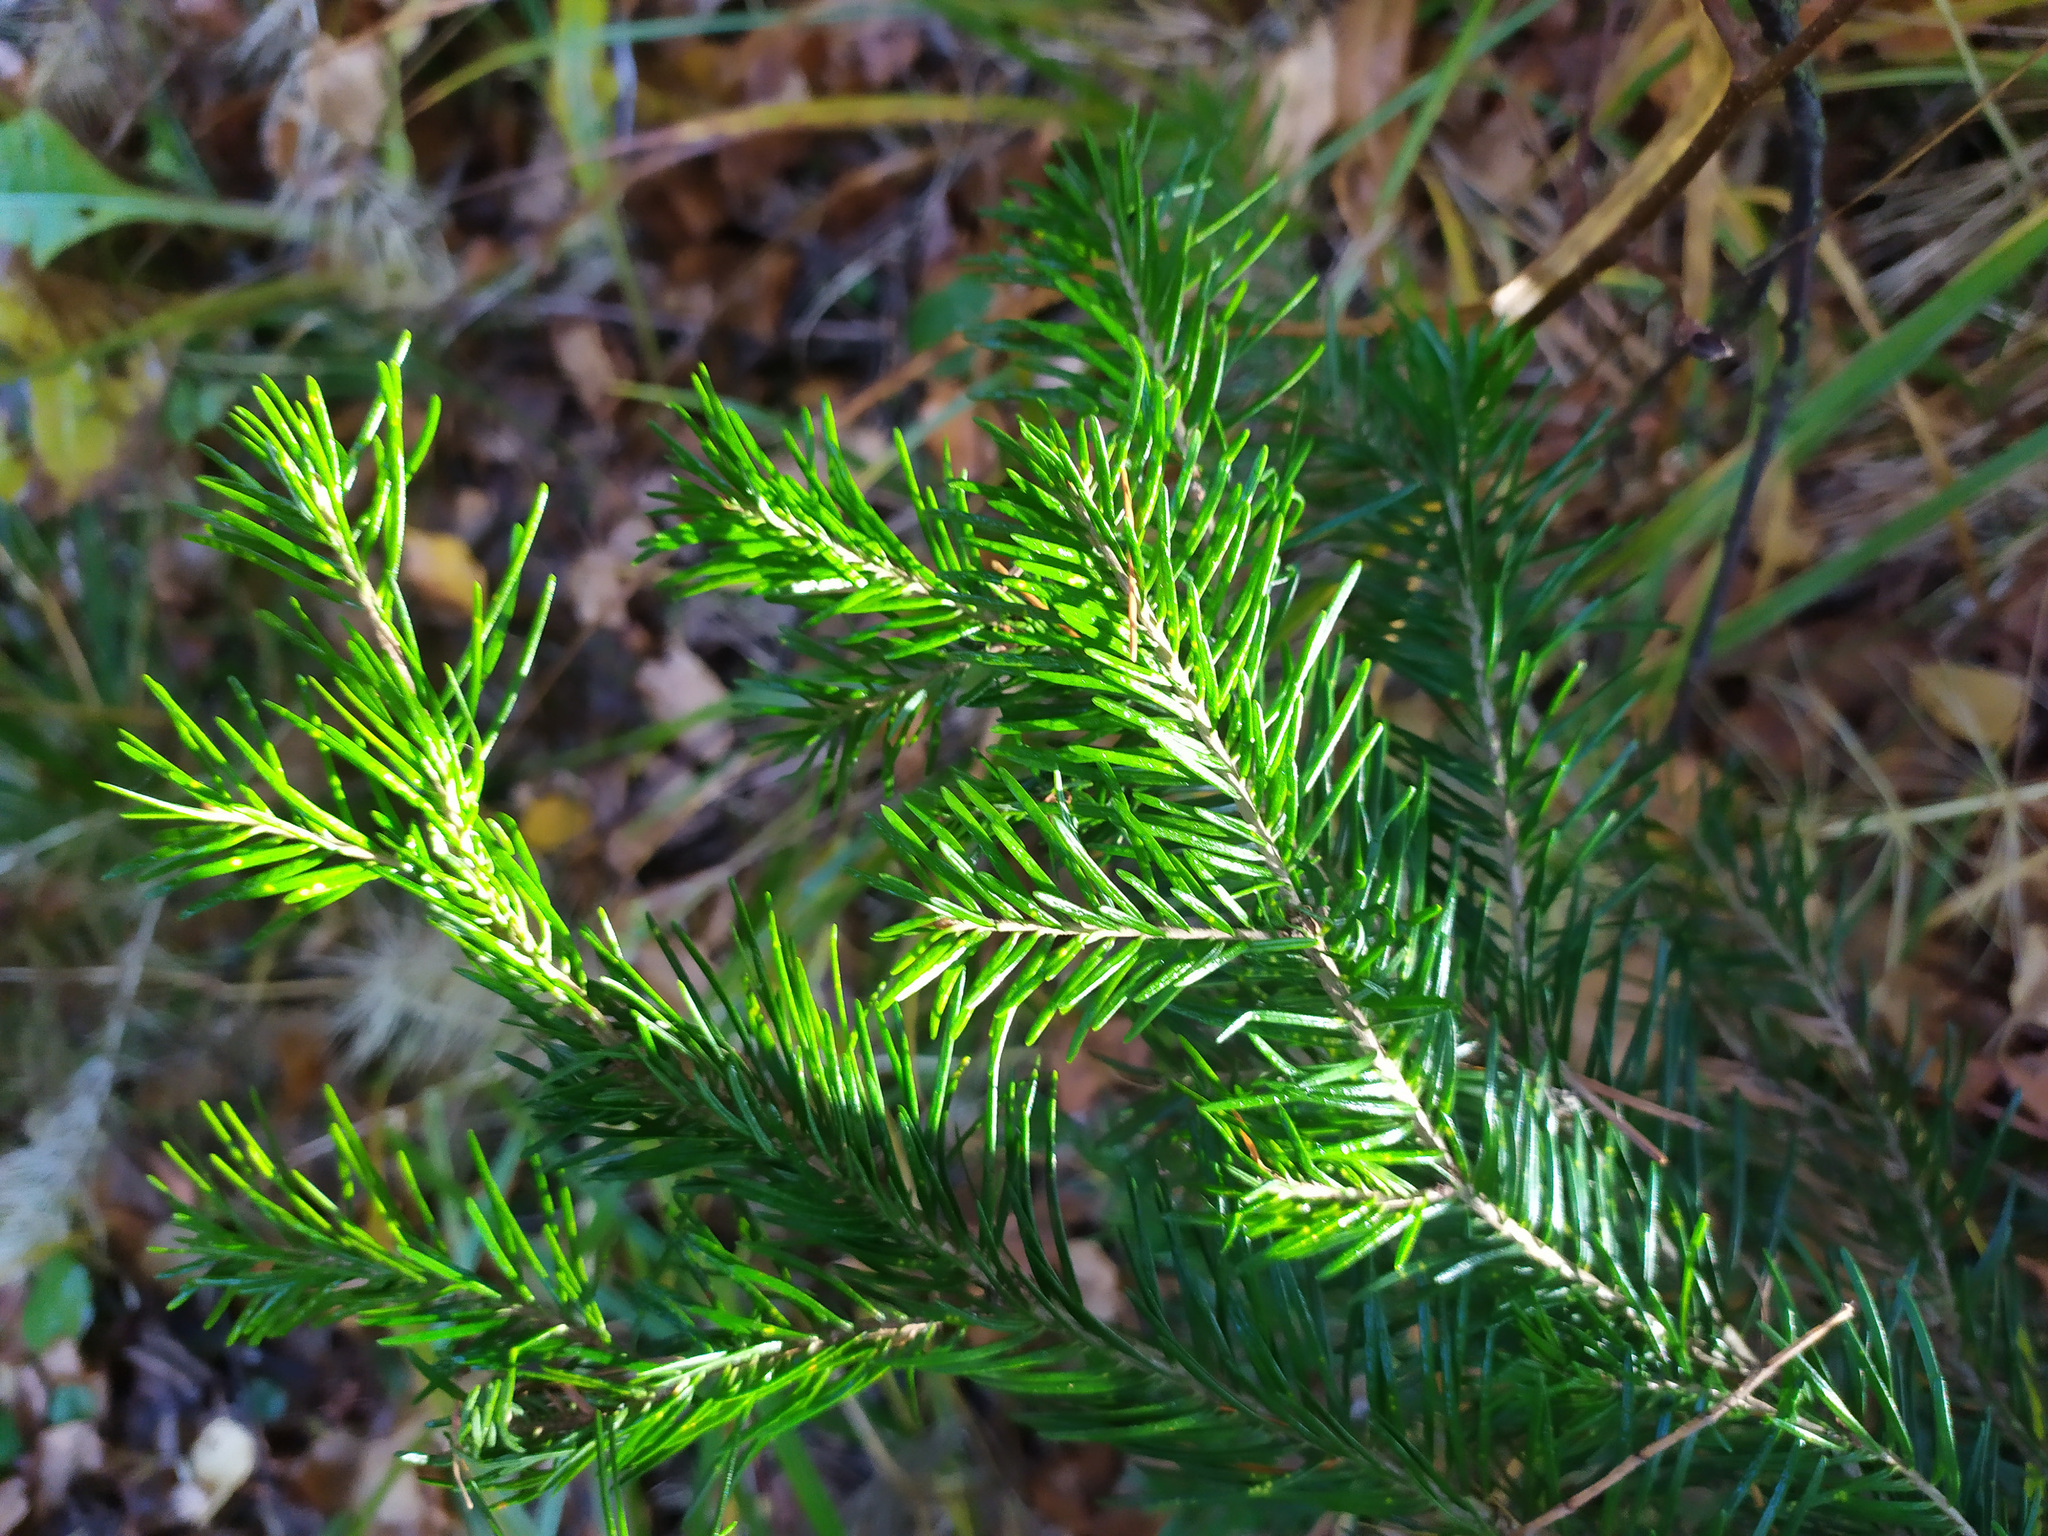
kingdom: Plantae
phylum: Tracheophyta
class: Pinopsida
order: Pinales
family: Pinaceae
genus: Abies
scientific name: Abies sibirica
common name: Siberian fir
